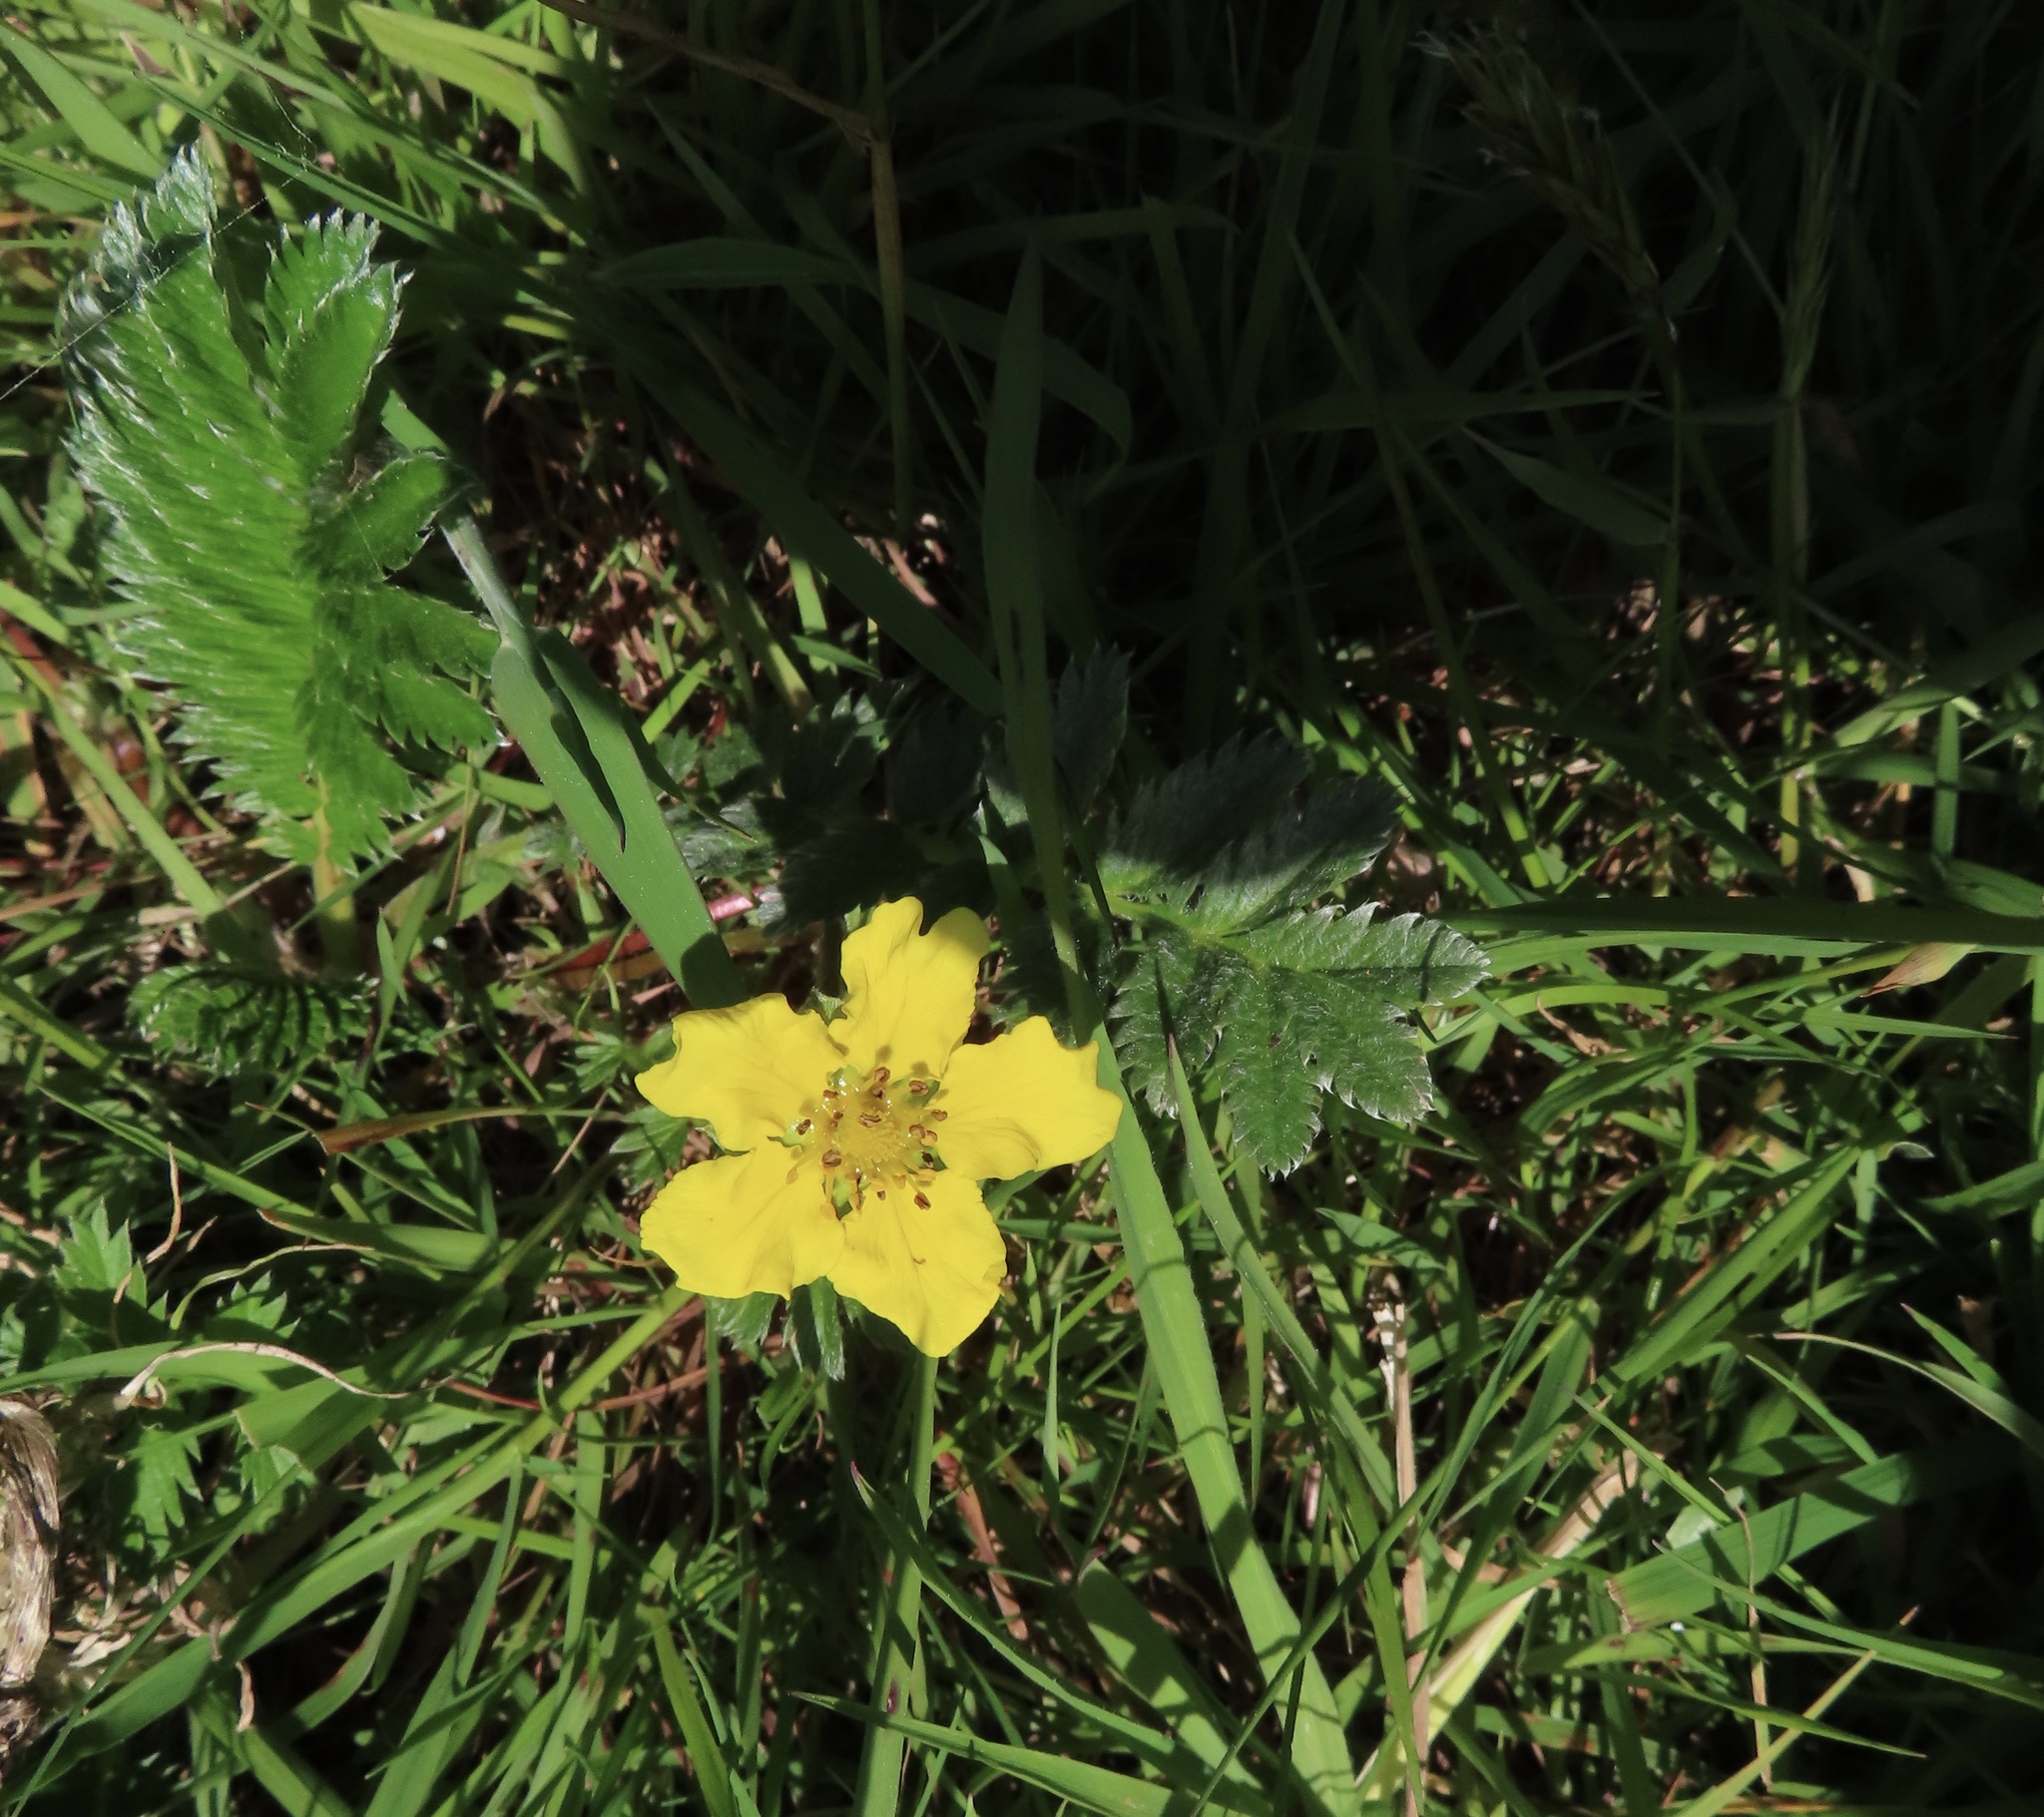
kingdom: Plantae
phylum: Tracheophyta
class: Magnoliopsida
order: Rosales
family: Rosaceae
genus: Argentina
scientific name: Argentina anserina
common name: Common silverweed
